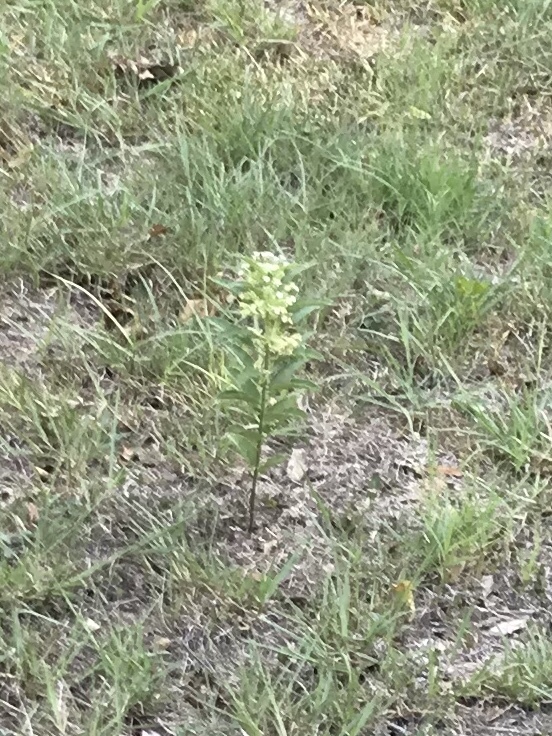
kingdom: Plantae
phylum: Tracheophyta
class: Magnoliopsida
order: Gentianales
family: Apocynaceae
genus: Asclepias
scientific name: Asclepias oenotheroides
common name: Zizotes milkweed
